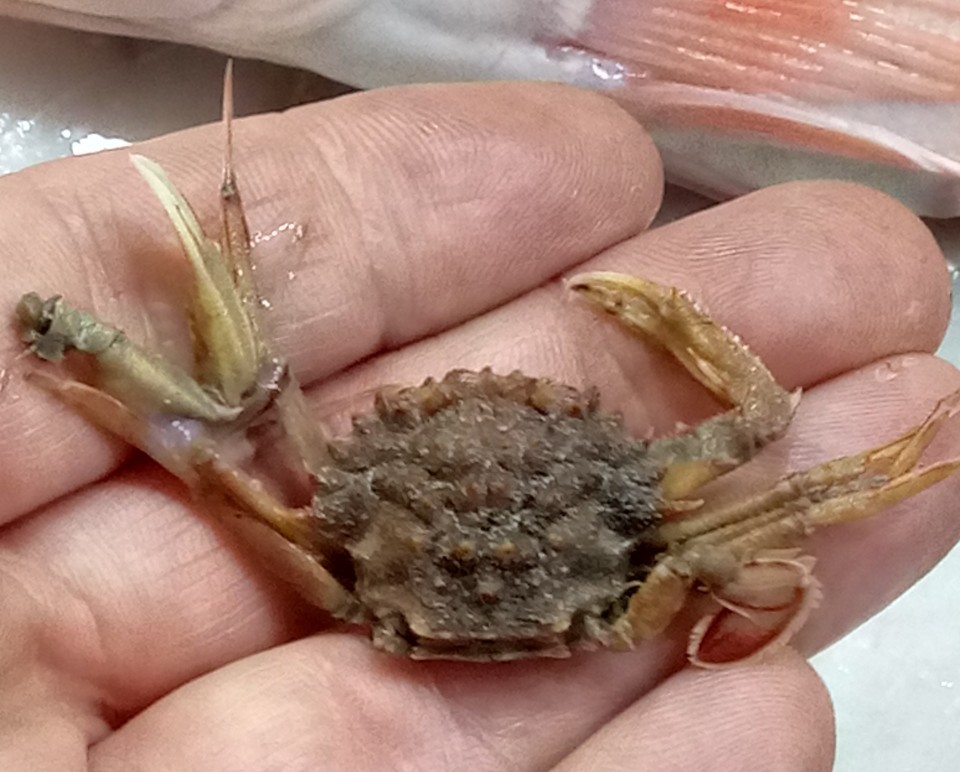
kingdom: Animalia
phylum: Arthropoda
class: Malacostraca
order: Decapoda
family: Polybiidae
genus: Macropipus
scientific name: Macropipus tuberculatus
